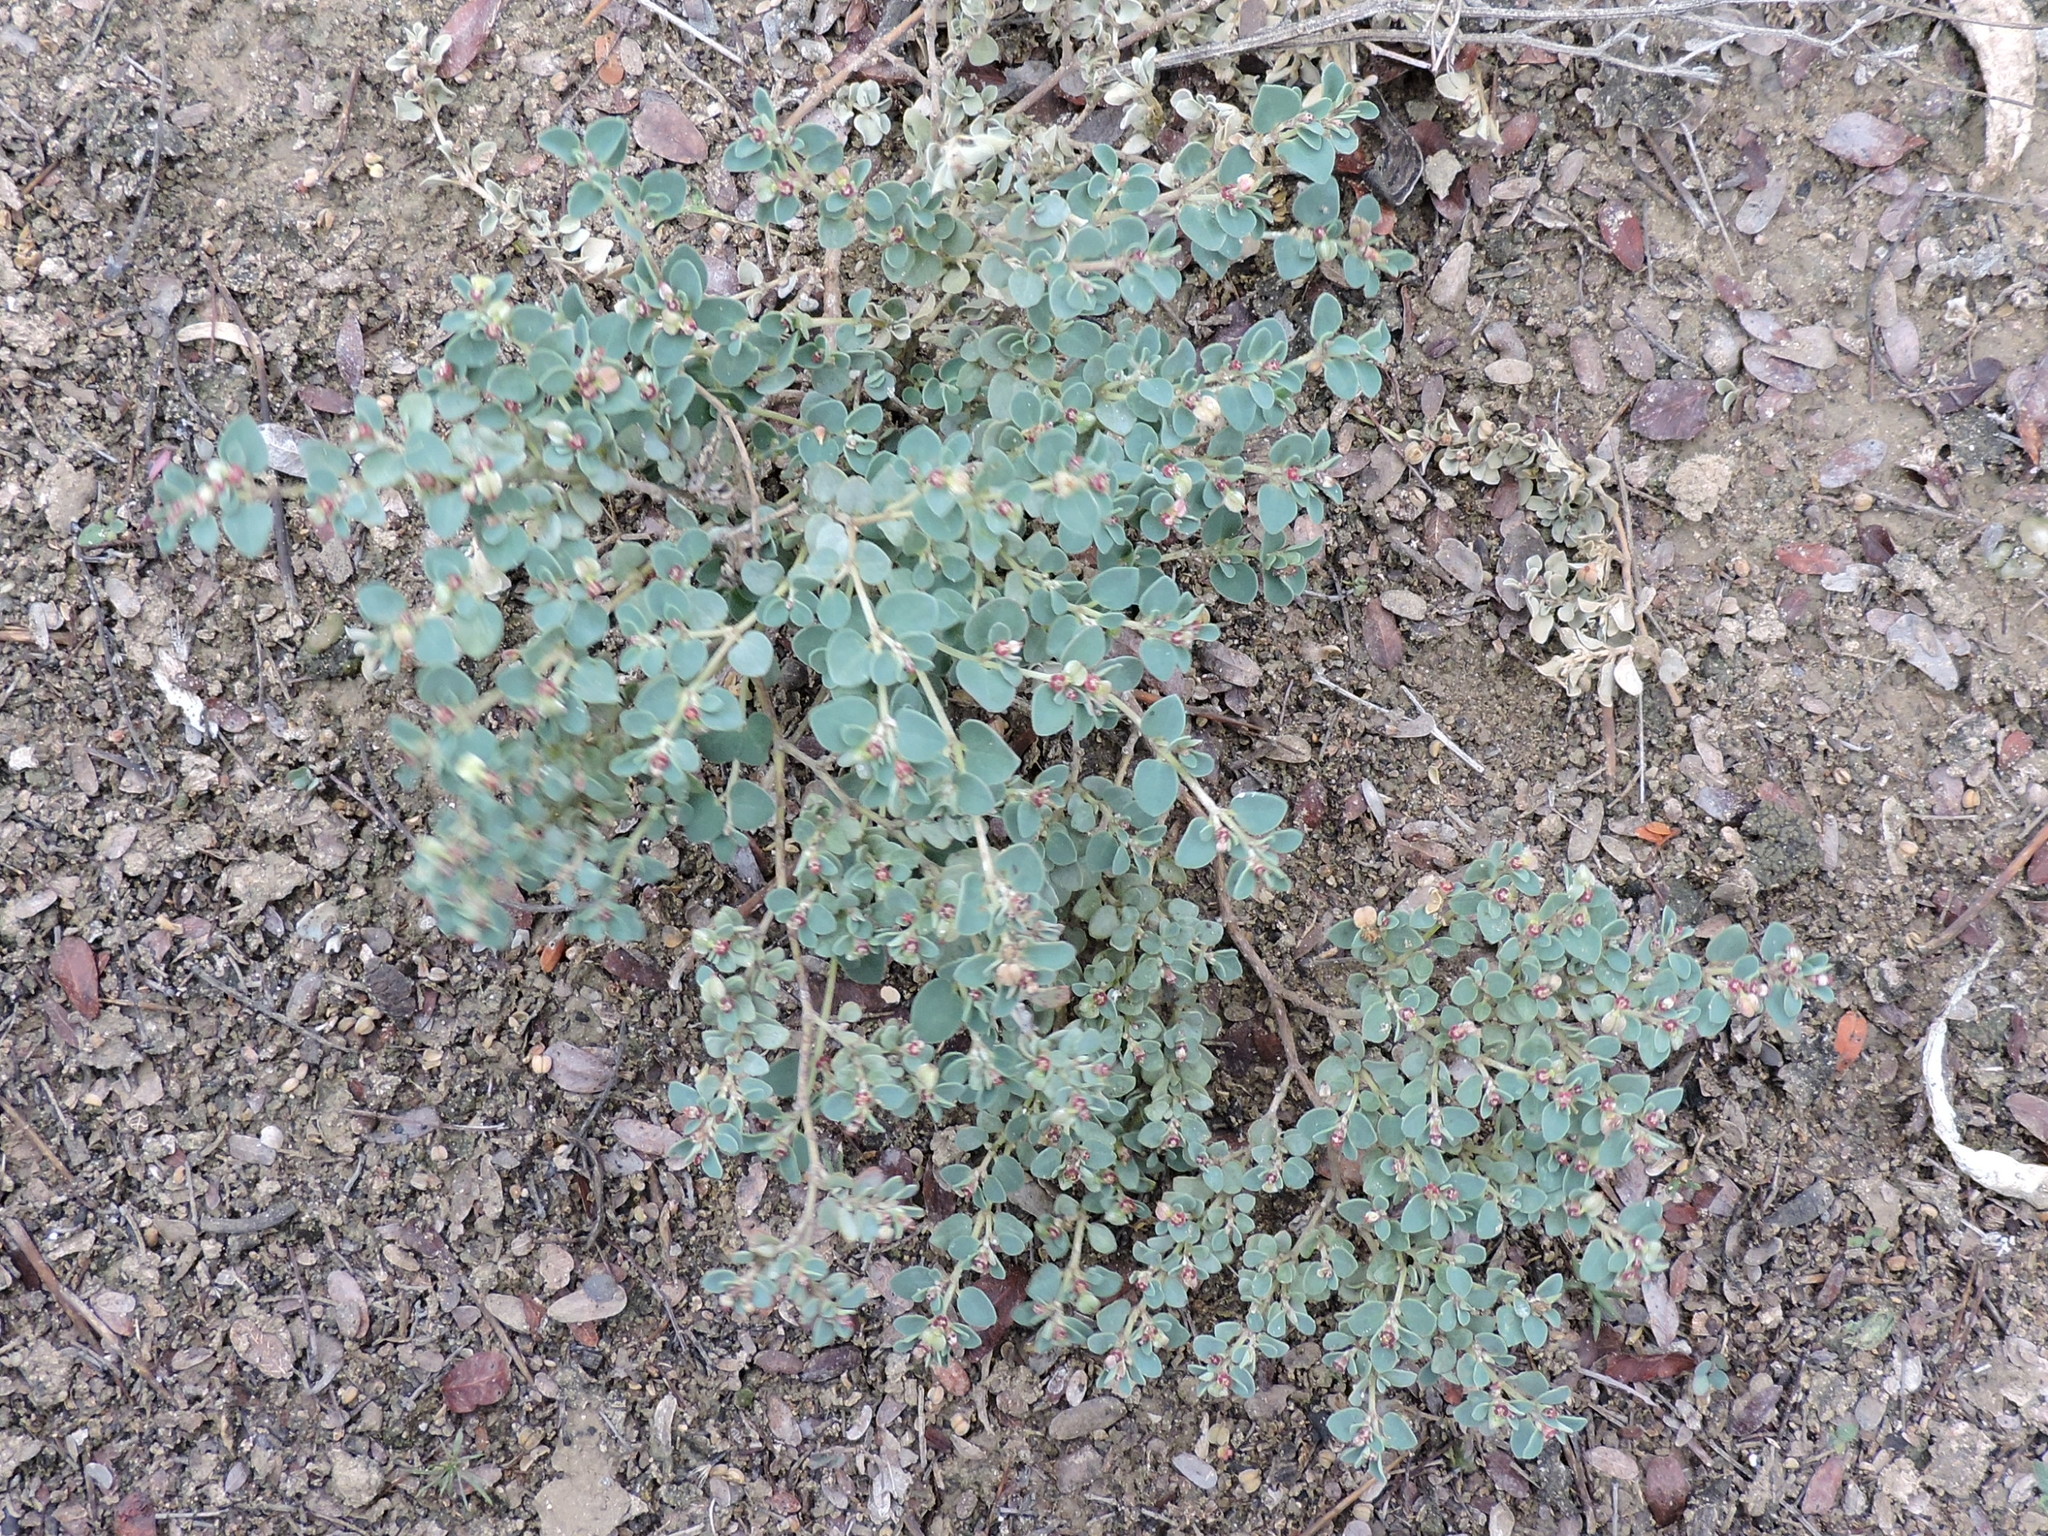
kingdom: Plantae
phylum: Tracheophyta
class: Magnoliopsida
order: Malpighiales
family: Euphorbiaceae
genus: Euphorbia
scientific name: Euphorbia cinerascens
